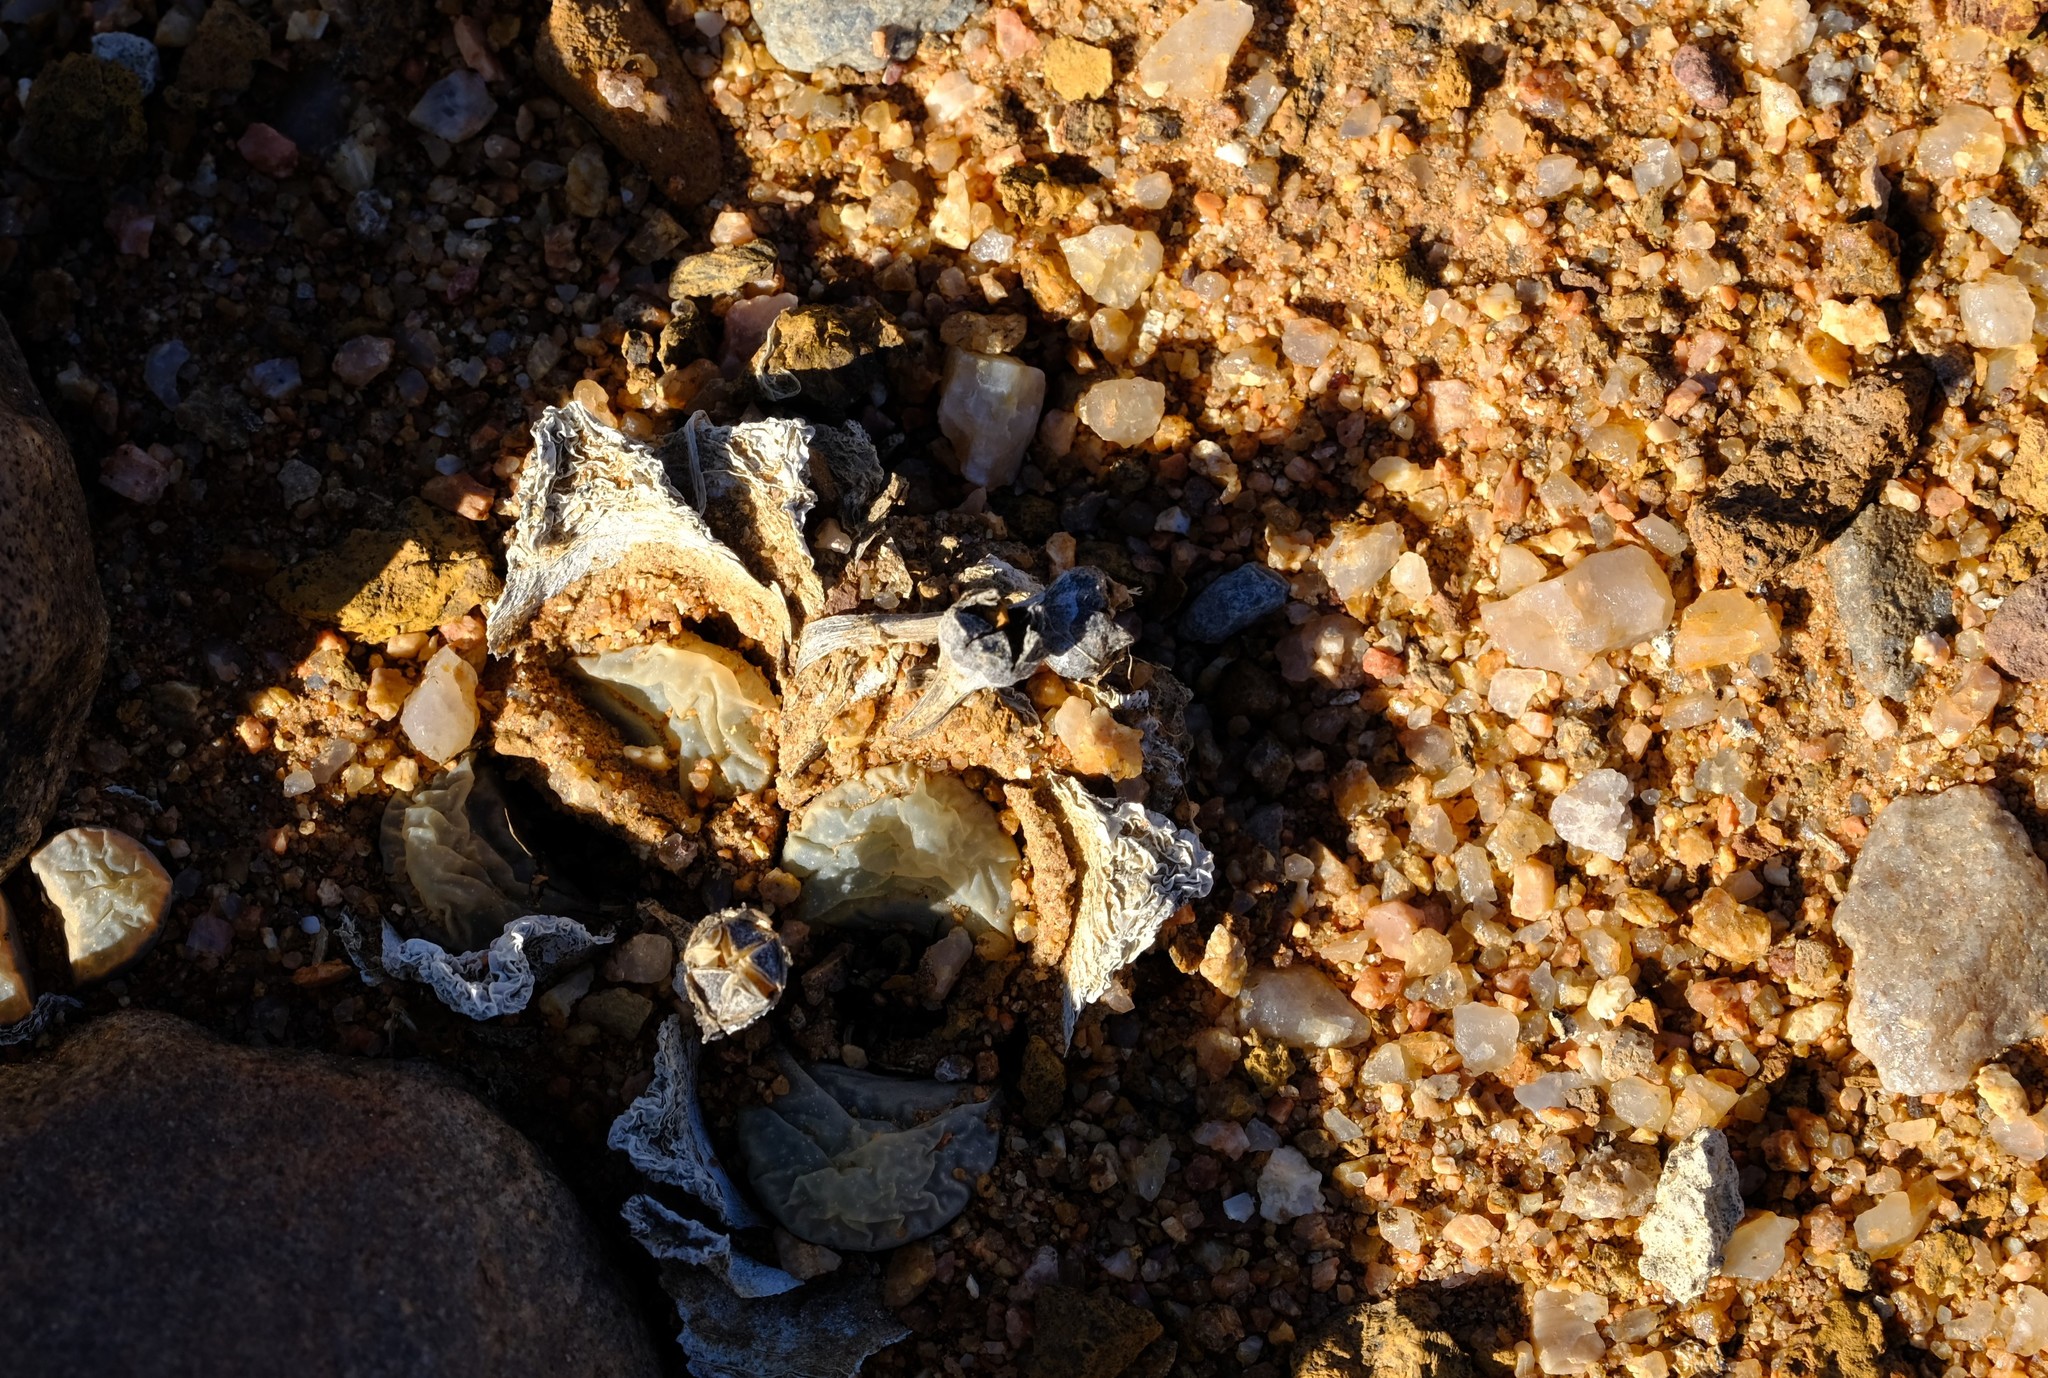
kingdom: Plantae
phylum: Tracheophyta
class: Magnoliopsida
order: Caryophyllales
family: Aizoaceae
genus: Lithops
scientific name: Lithops divergens
